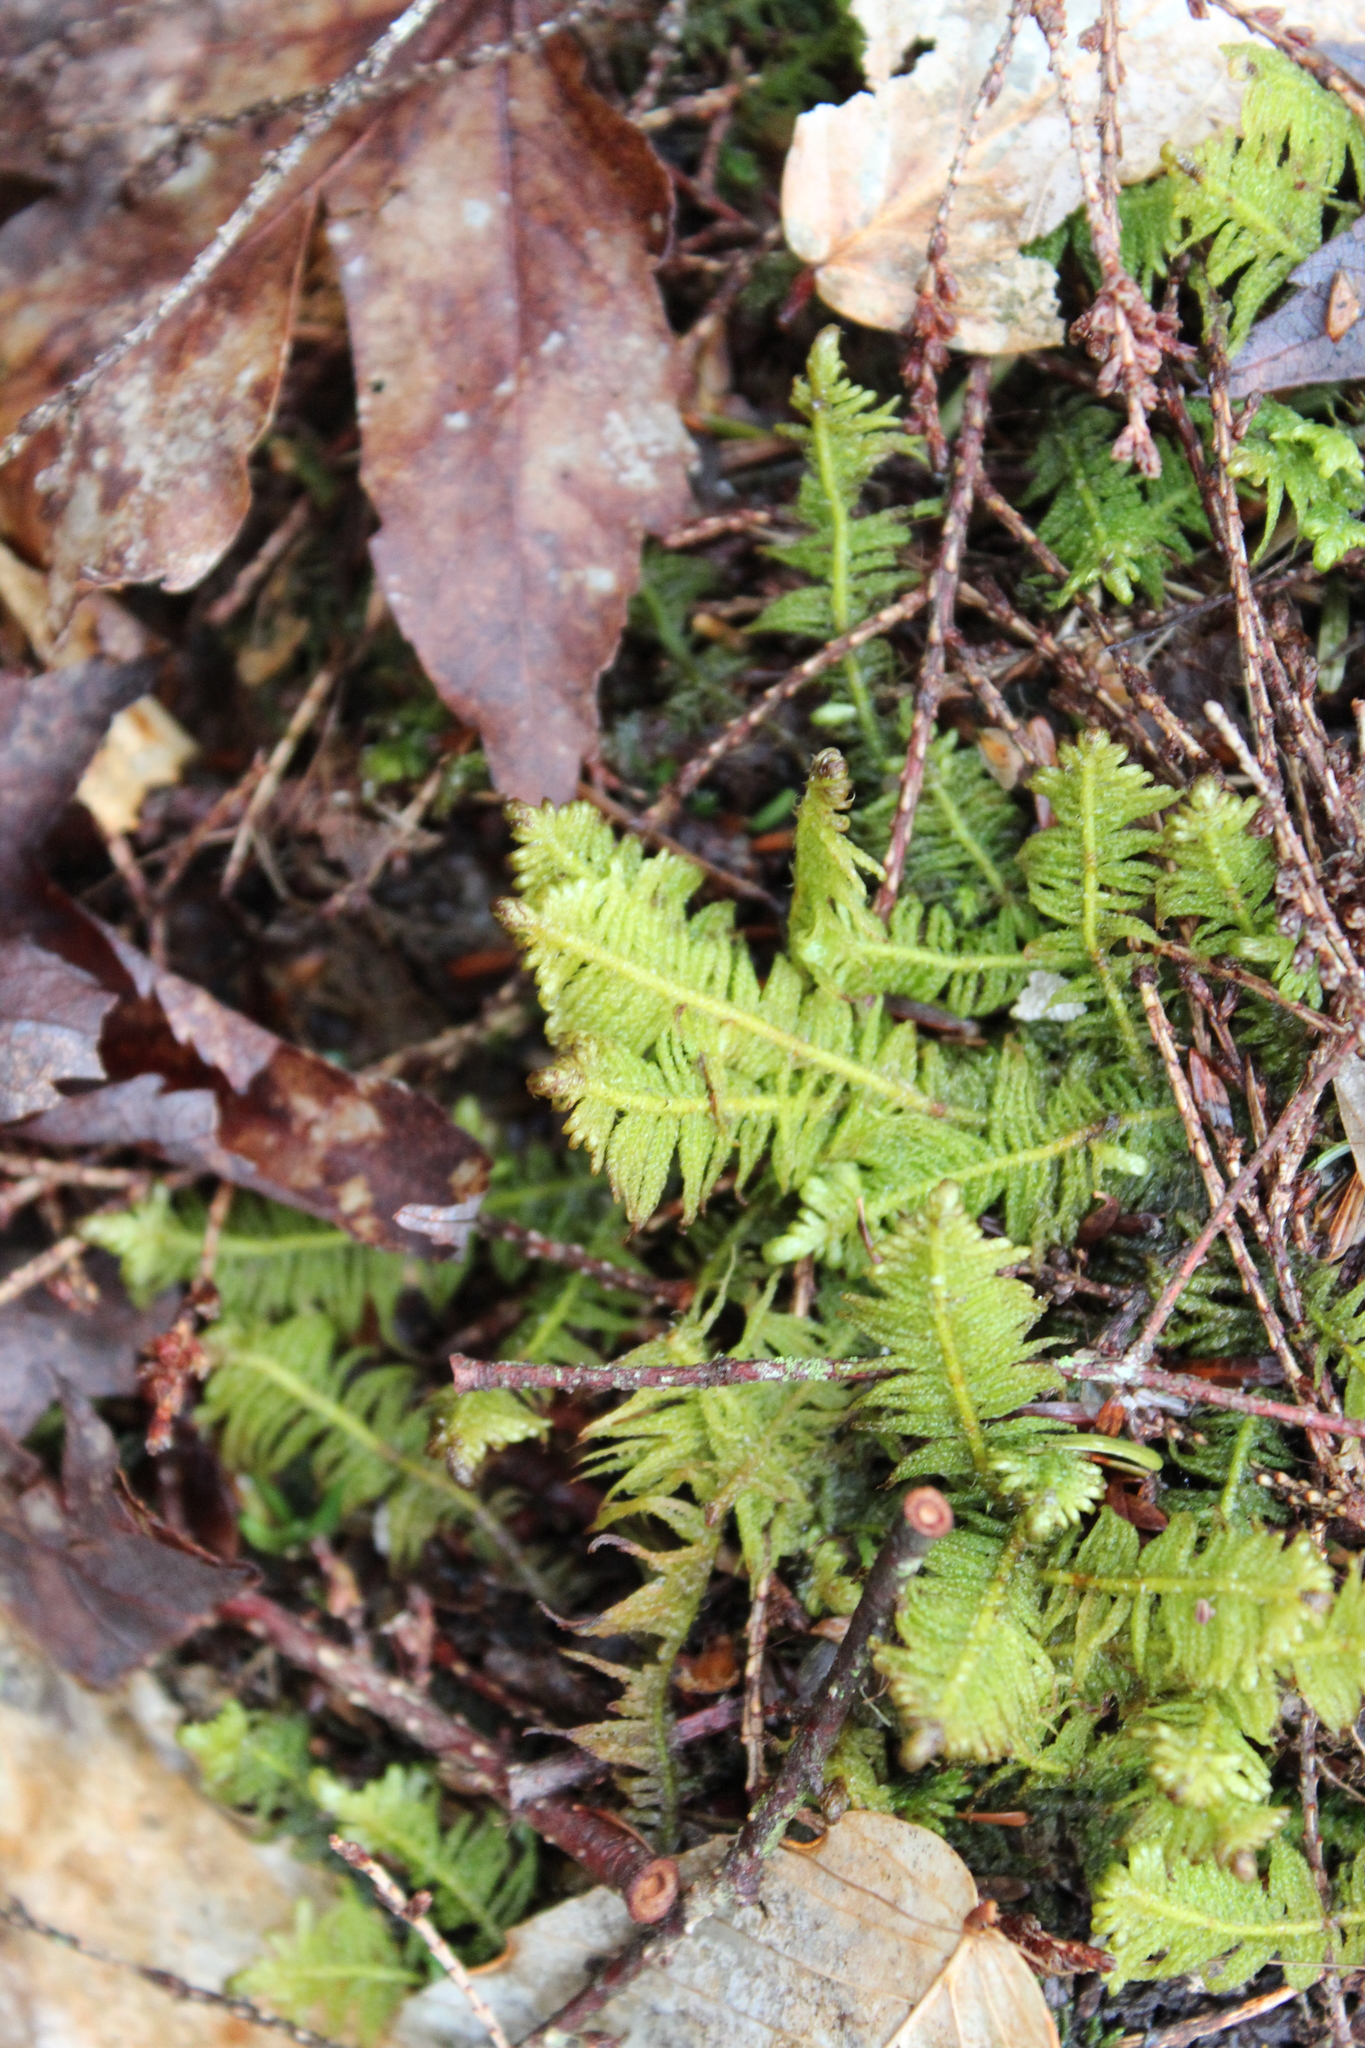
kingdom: Plantae
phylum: Bryophyta
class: Bryopsida
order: Hypnales
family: Pylaisiaceae
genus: Ptilium
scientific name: Ptilium crista-castrensis
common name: Knight's plume moss
